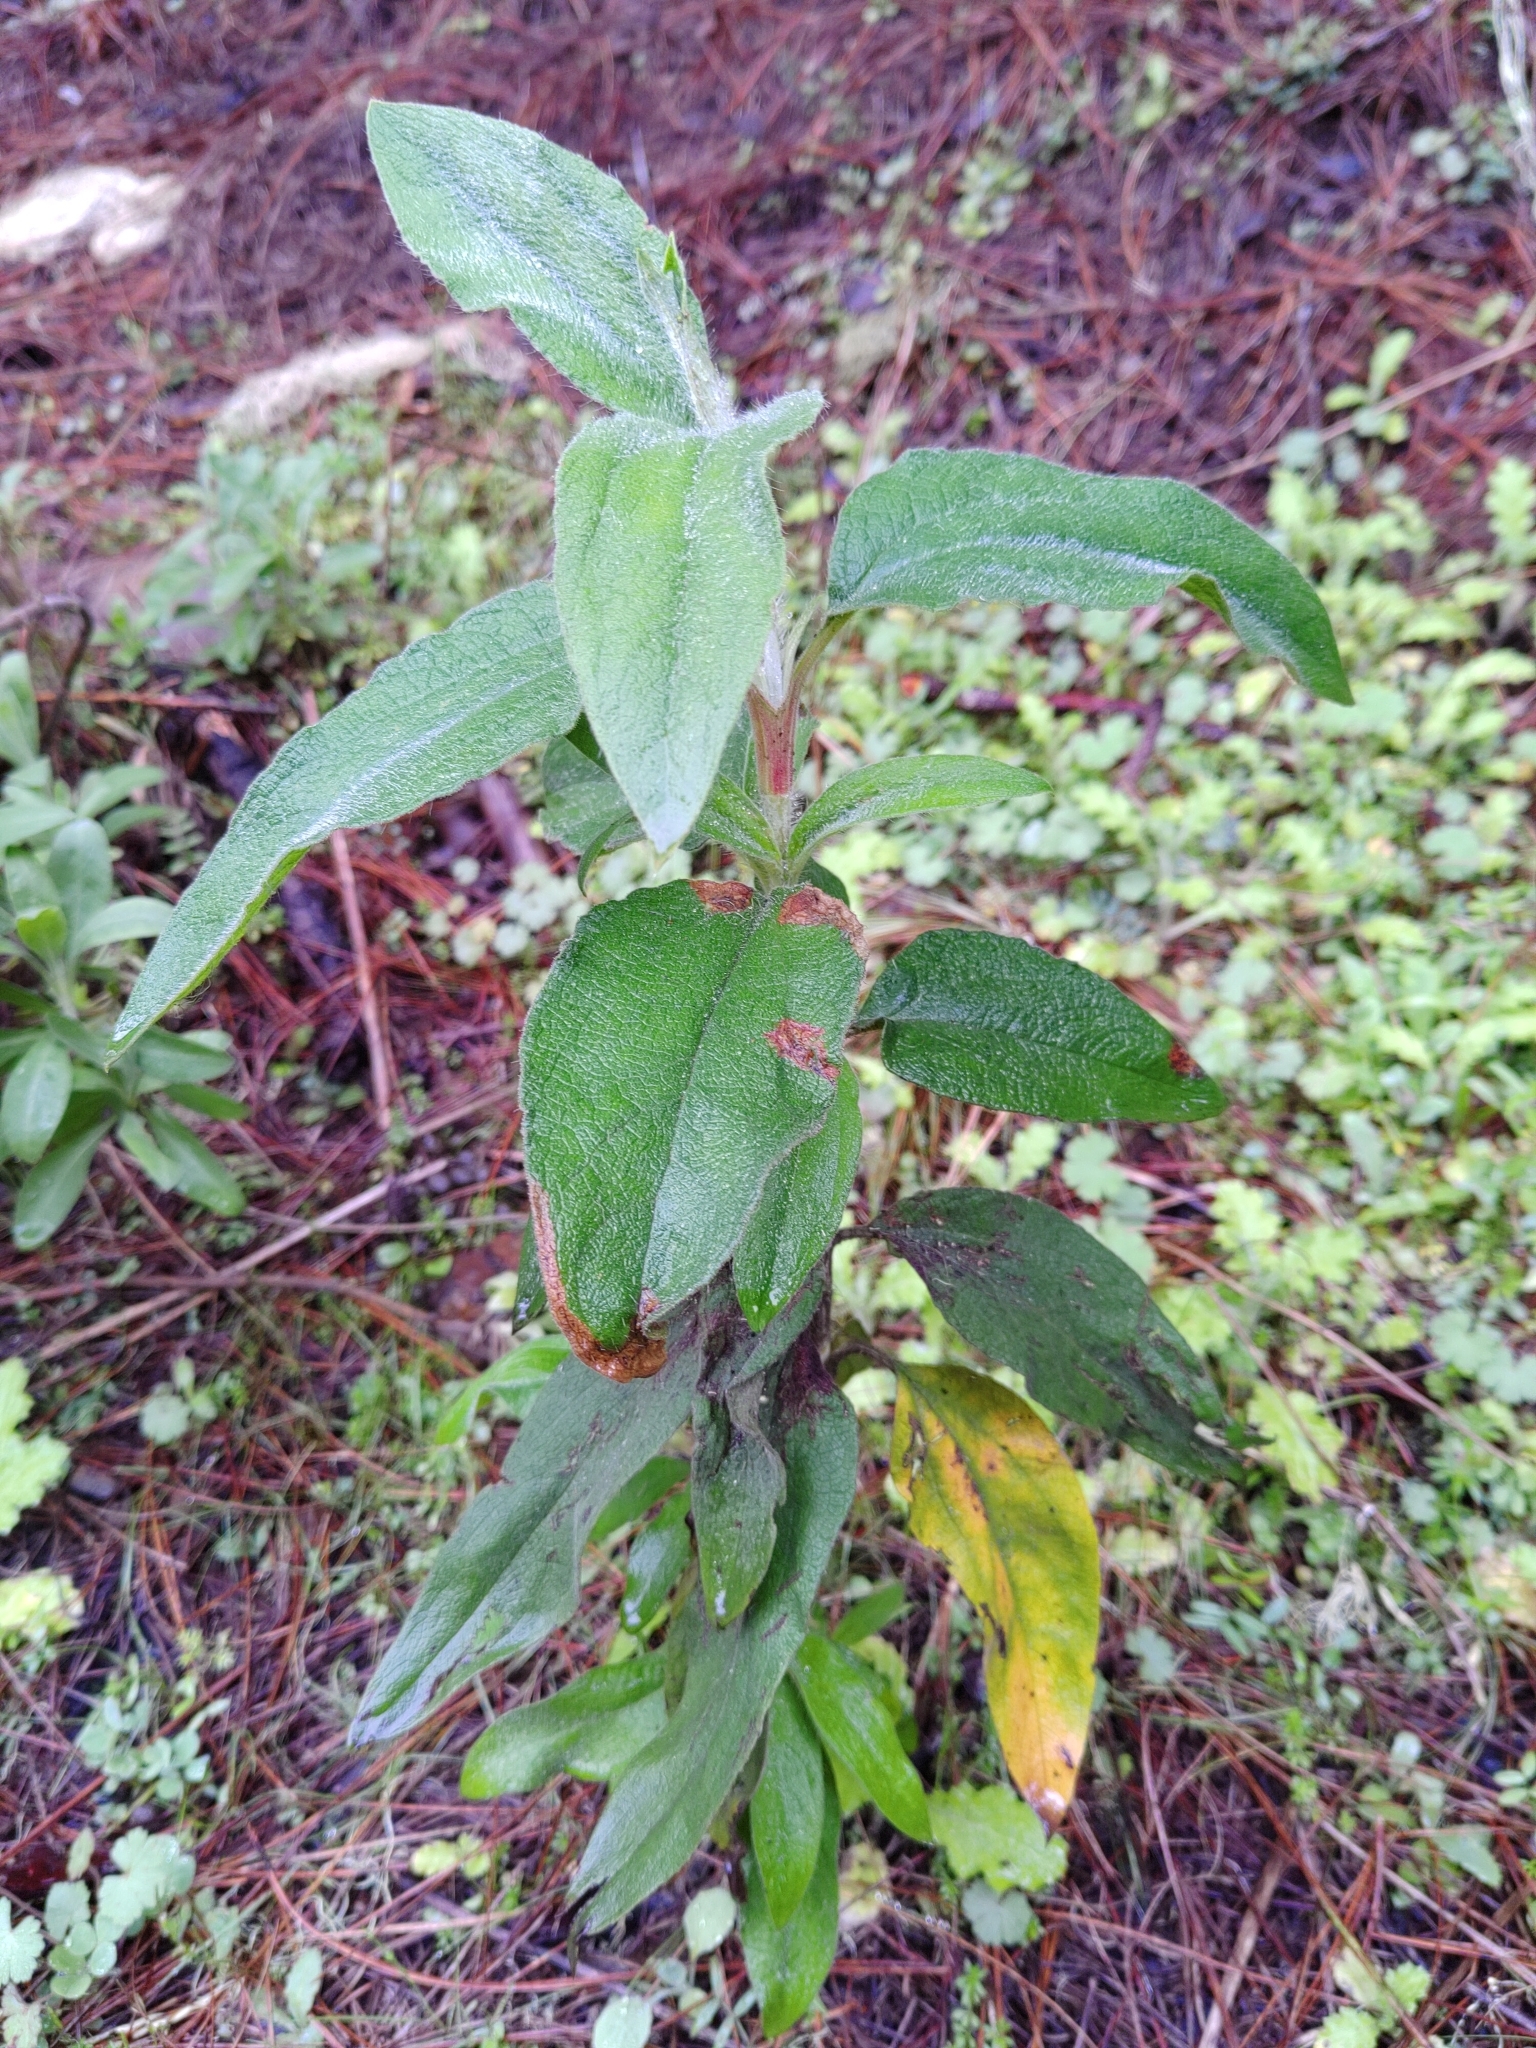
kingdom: Plantae
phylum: Tracheophyta
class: Magnoliopsida
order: Malvales
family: Cistaceae
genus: Cistus
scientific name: Cistus symphytifolius
